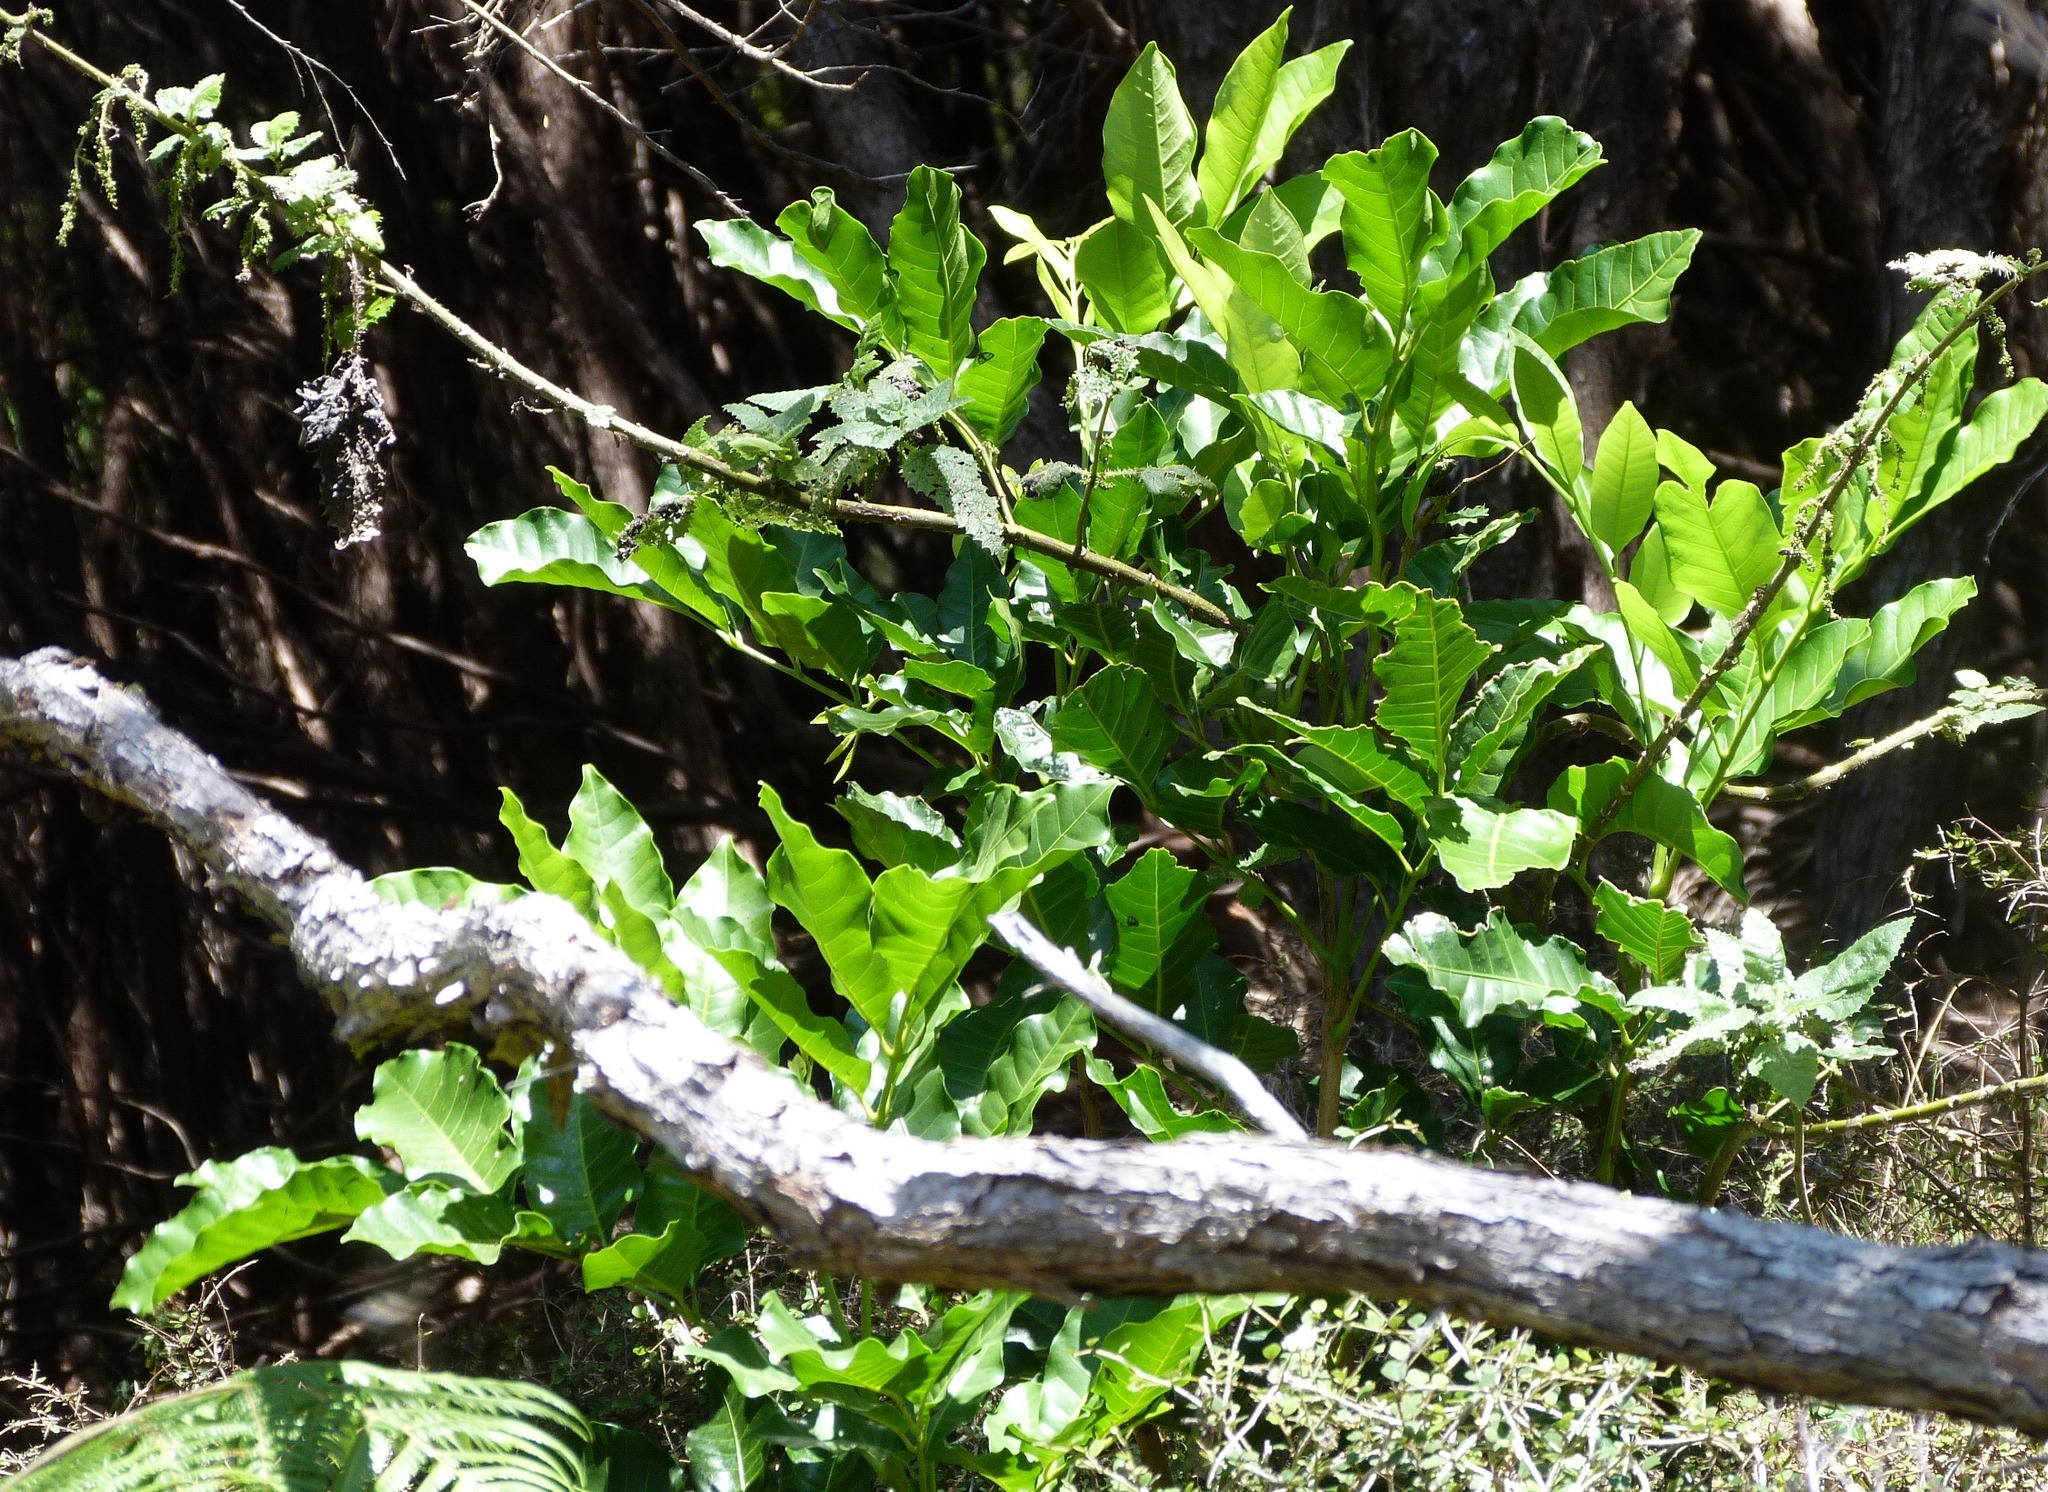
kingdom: Plantae
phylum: Tracheophyta
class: Magnoliopsida
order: Sapindales
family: Meliaceae
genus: Didymocheton
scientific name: Didymocheton spectabilis
